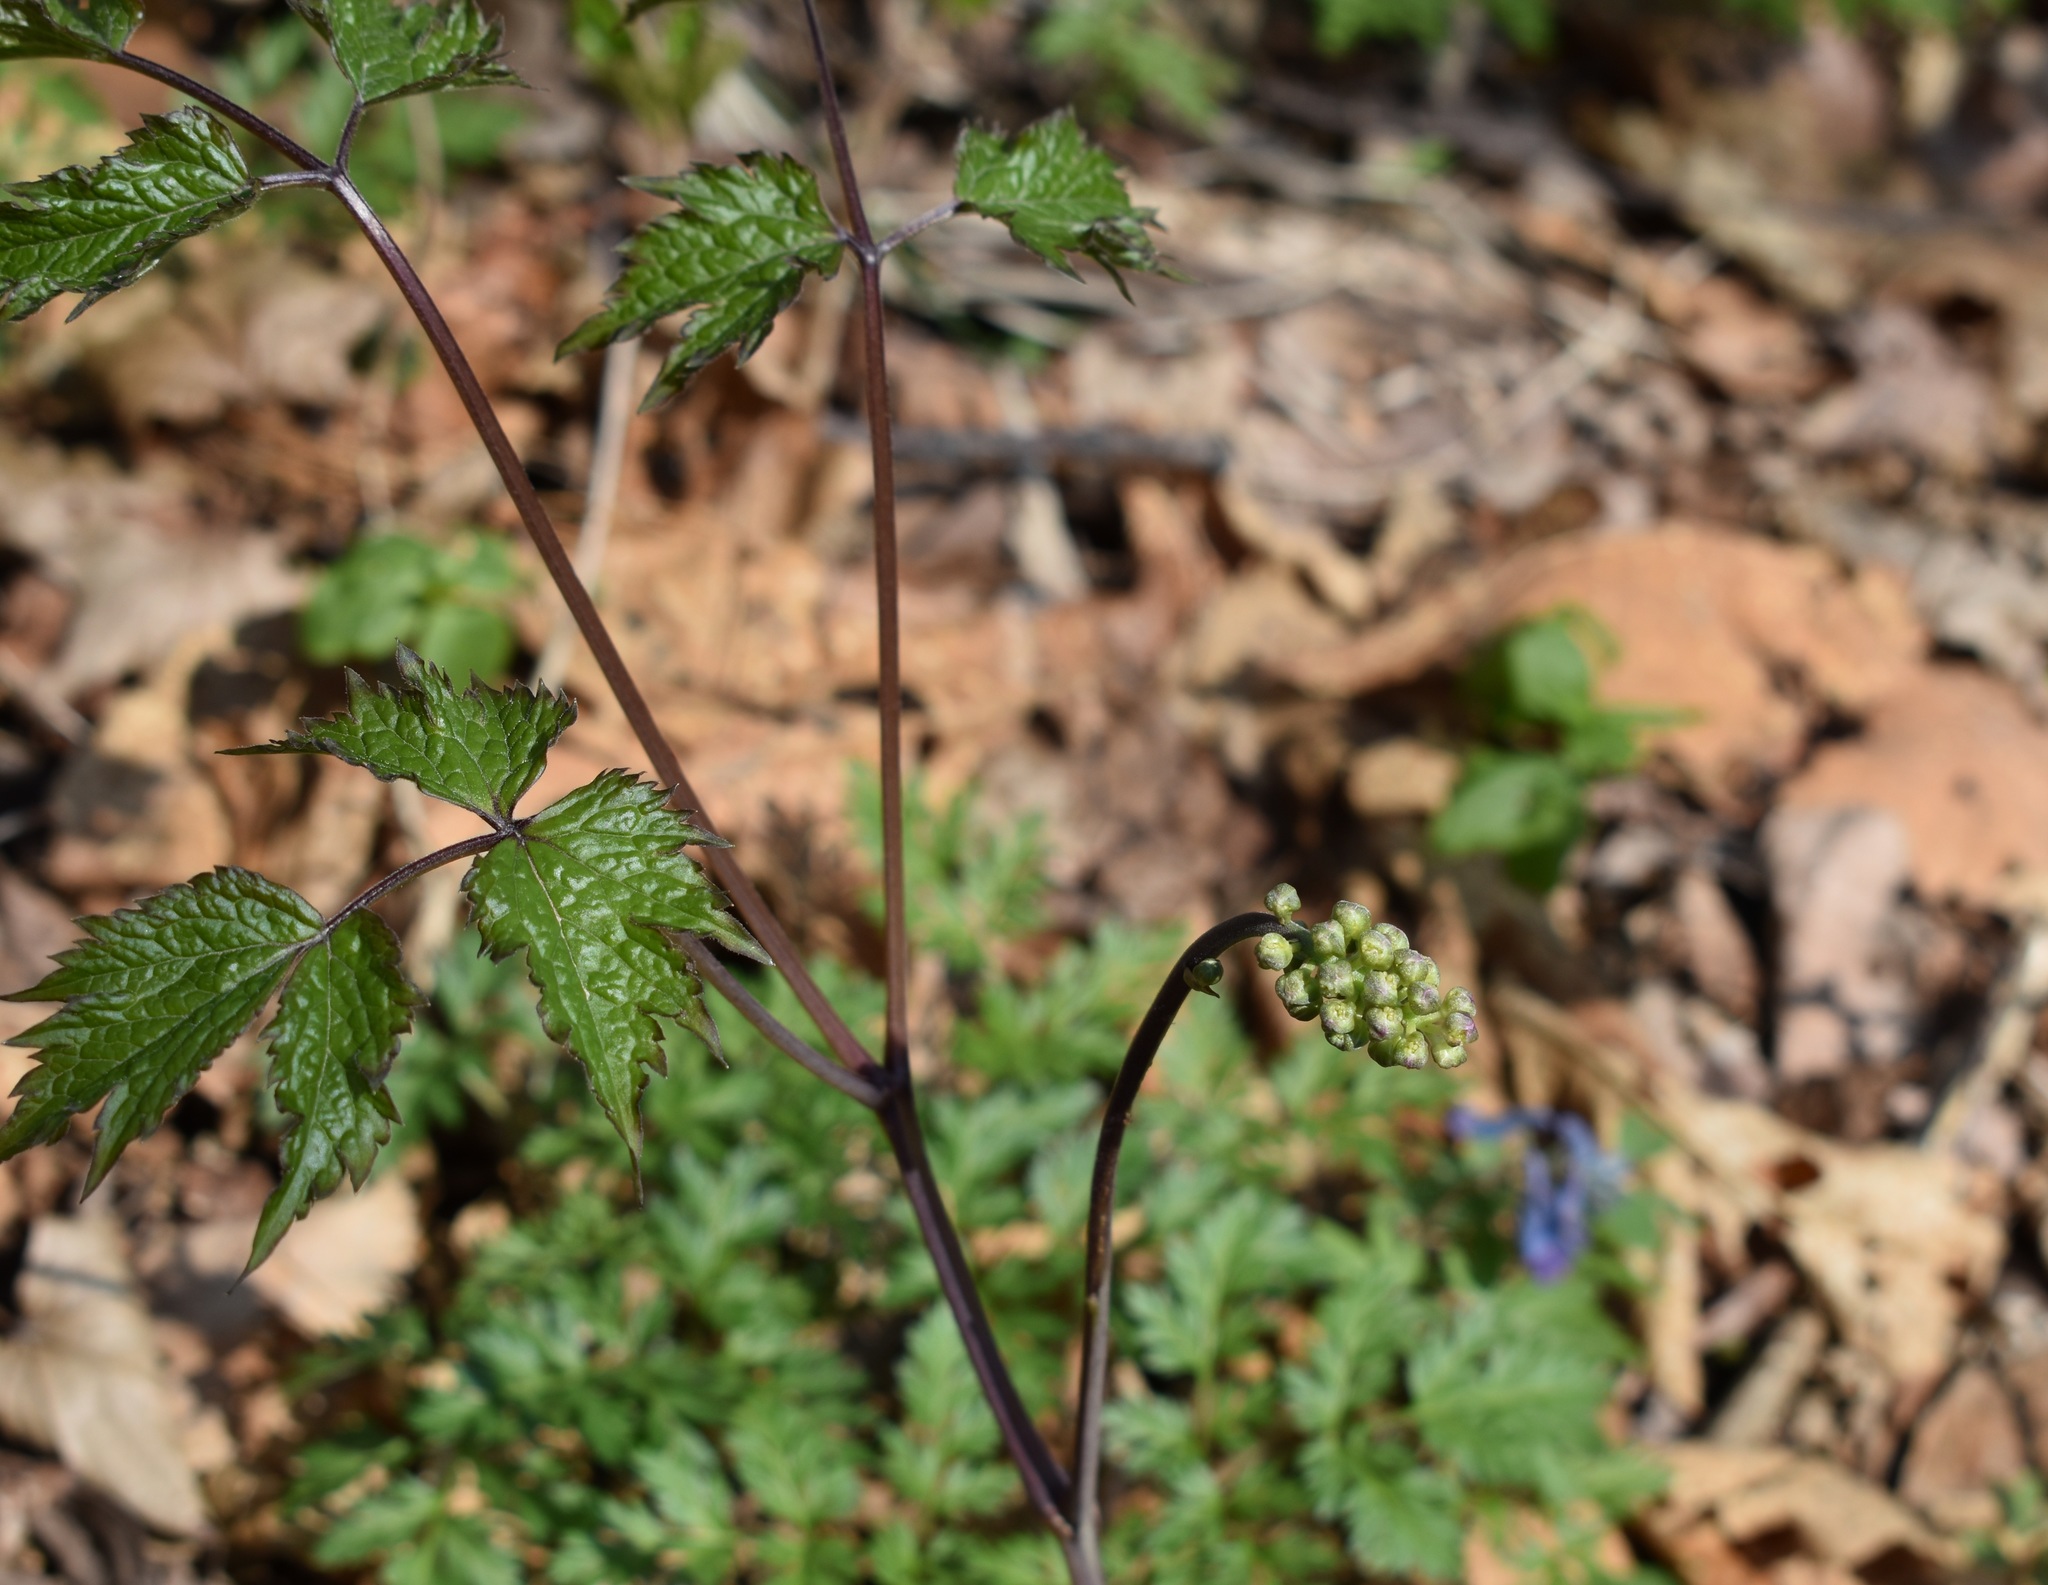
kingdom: Plantae
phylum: Tracheophyta
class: Magnoliopsida
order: Ranunculales
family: Ranunculaceae
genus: Actaea
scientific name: Actaea asiatica
